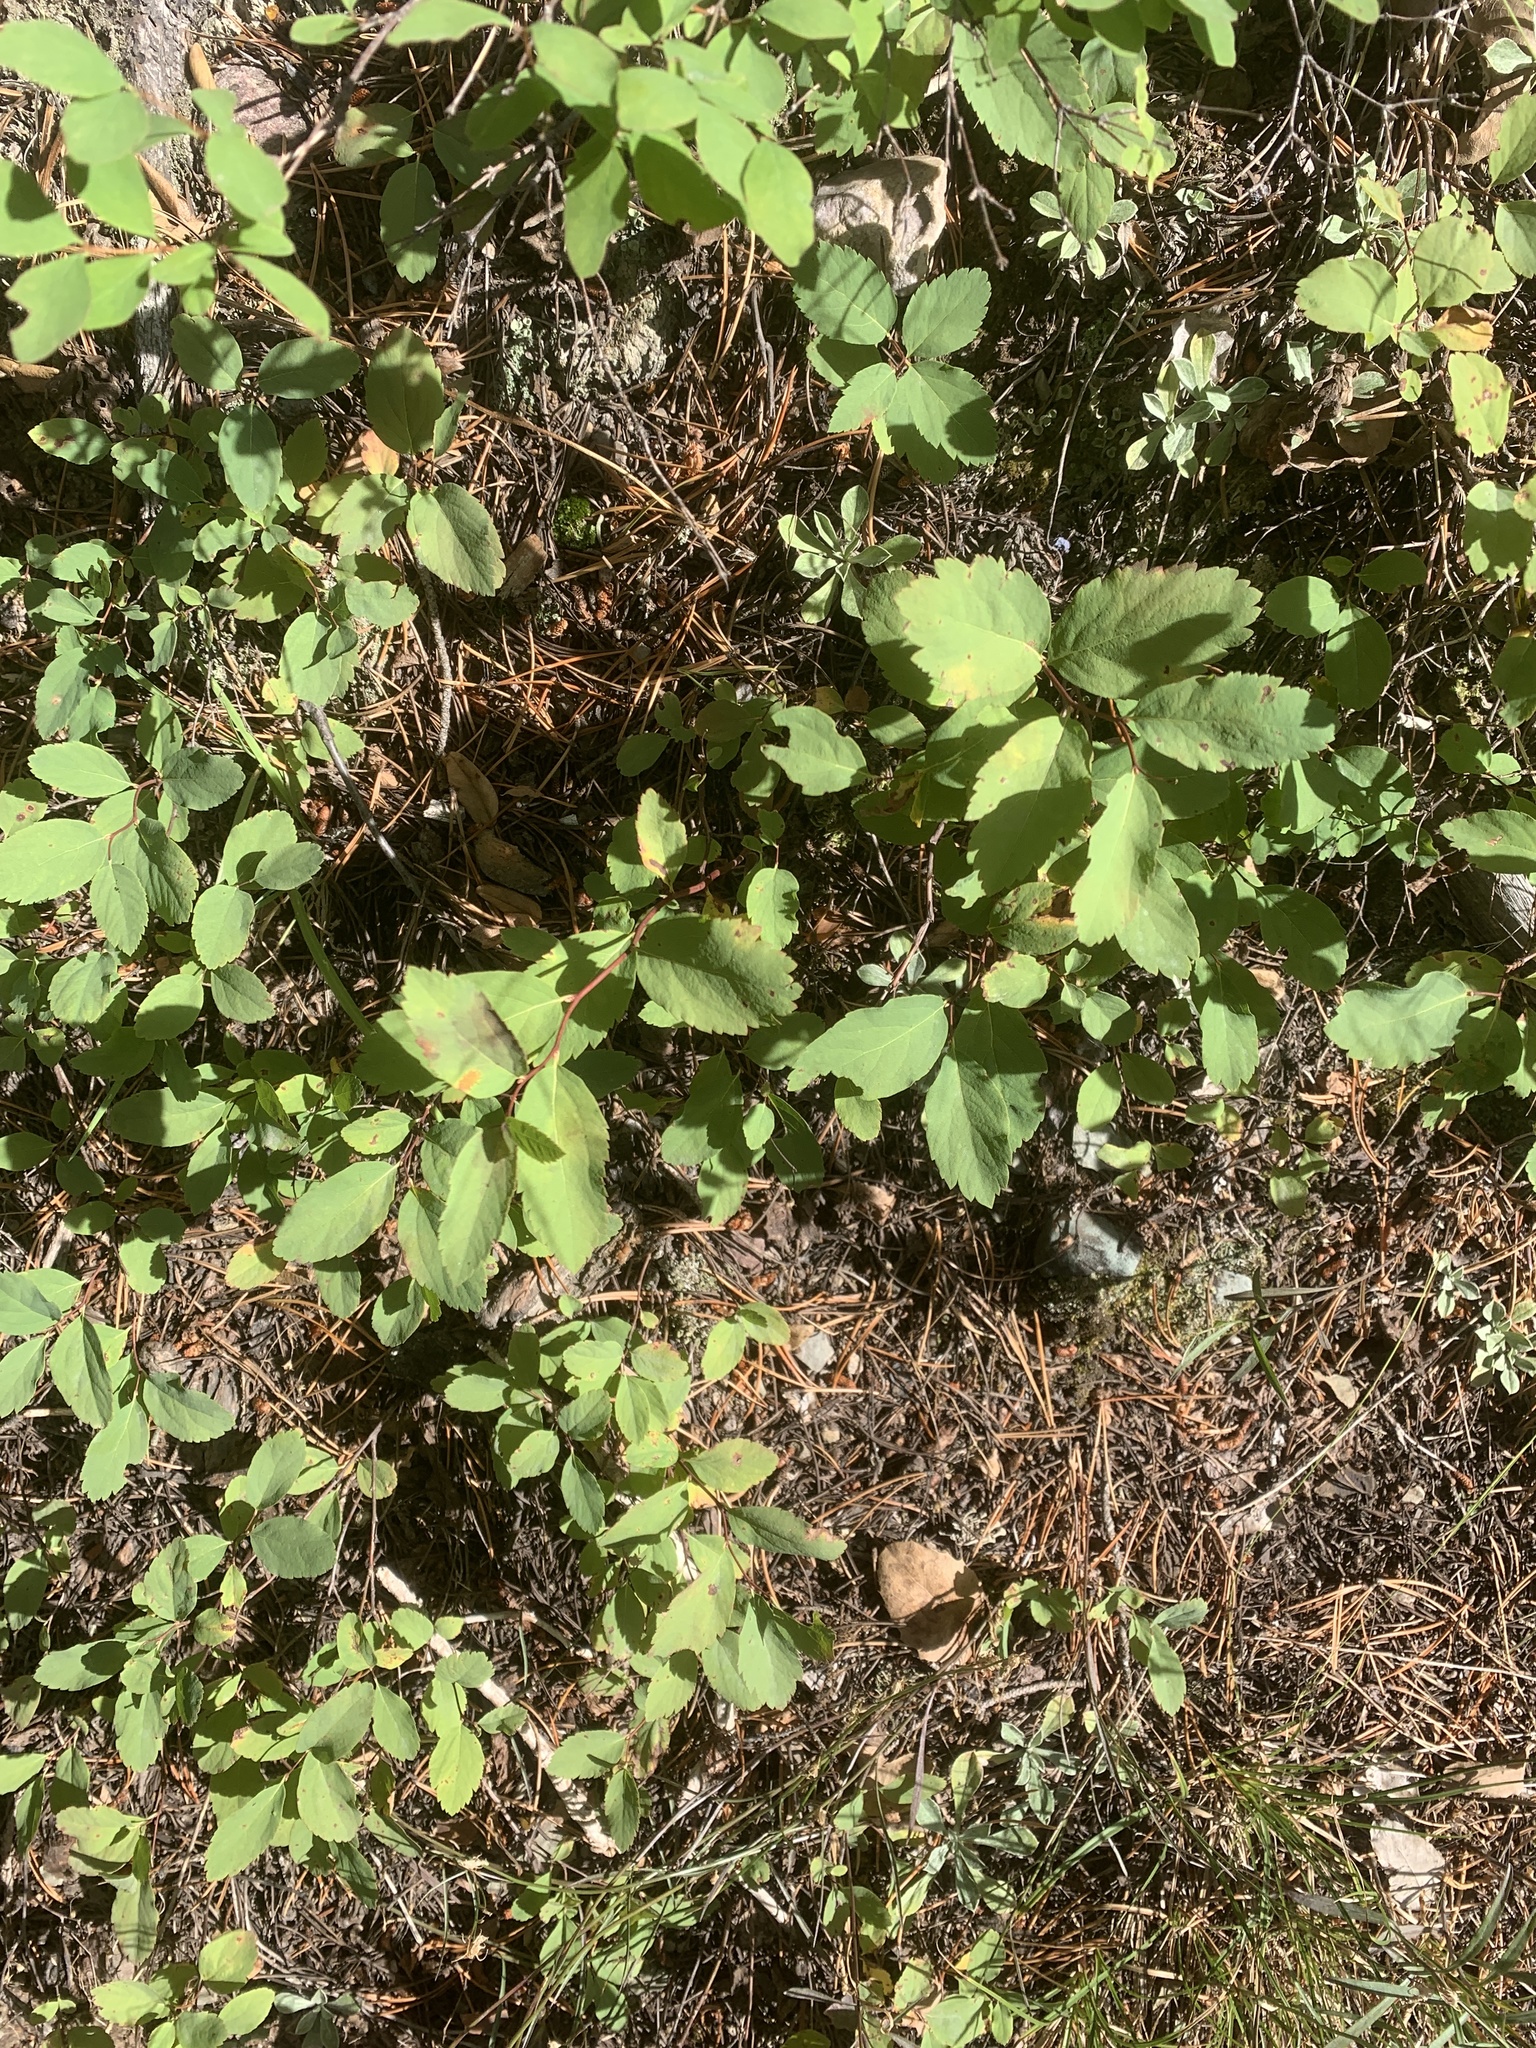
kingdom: Plantae
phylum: Tracheophyta
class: Magnoliopsida
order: Rosales
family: Rosaceae
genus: Spiraea
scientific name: Spiraea lucida
